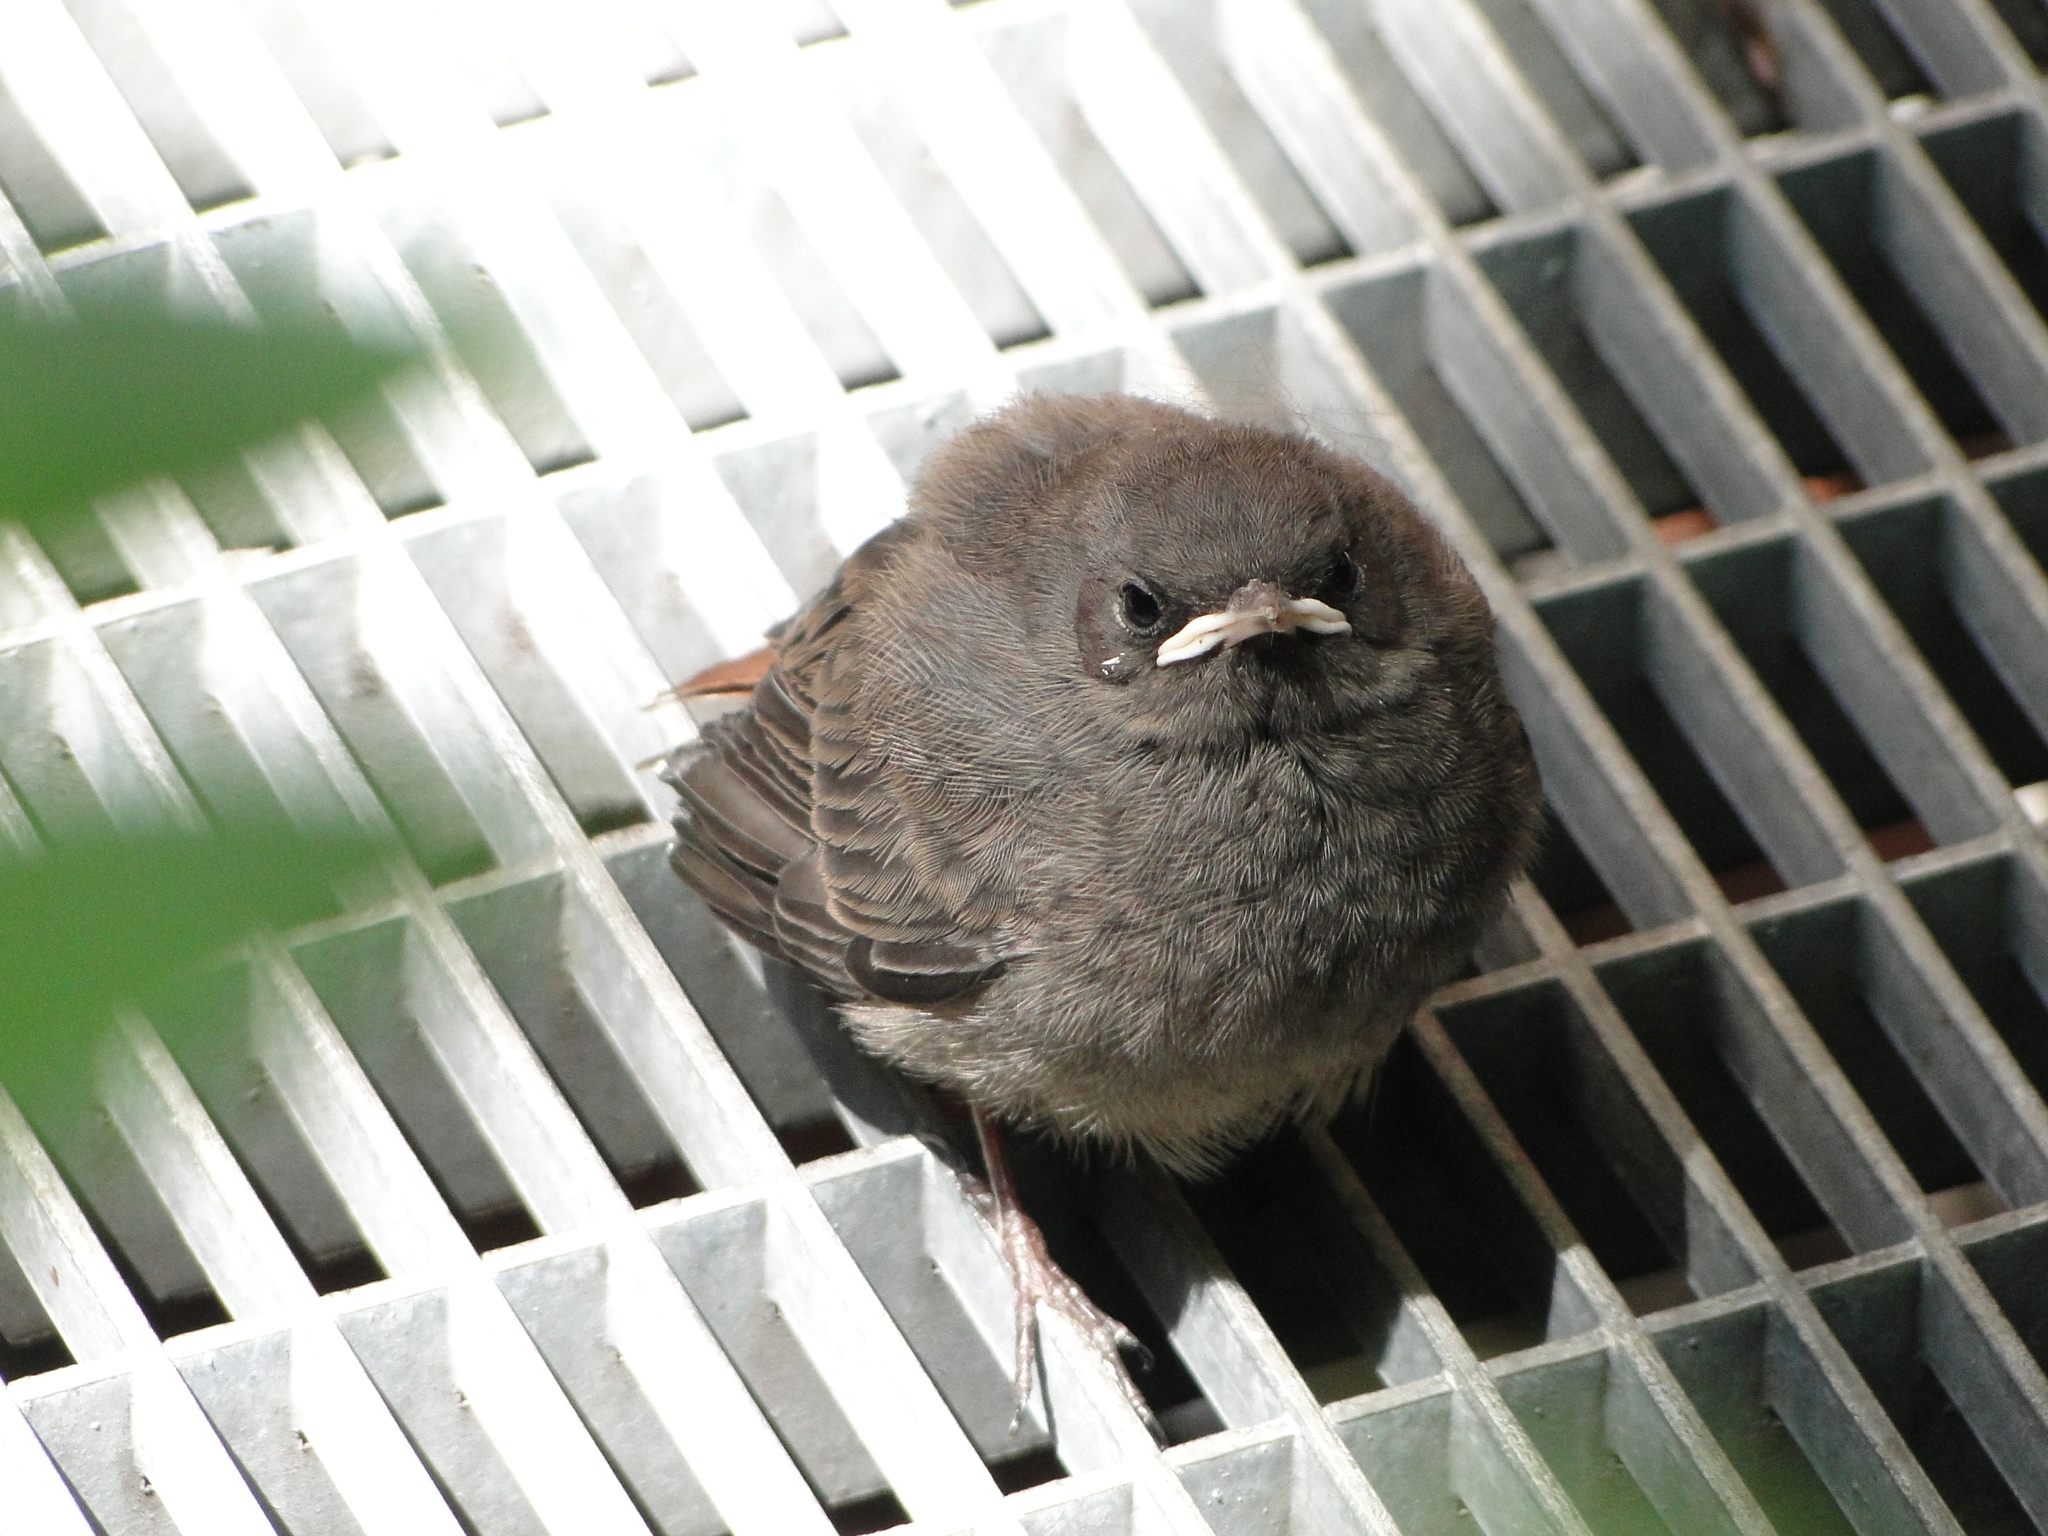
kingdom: Animalia
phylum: Chordata
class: Aves
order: Passeriformes
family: Muscicapidae
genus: Phoenicurus
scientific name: Phoenicurus ochruros
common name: Black redstart
